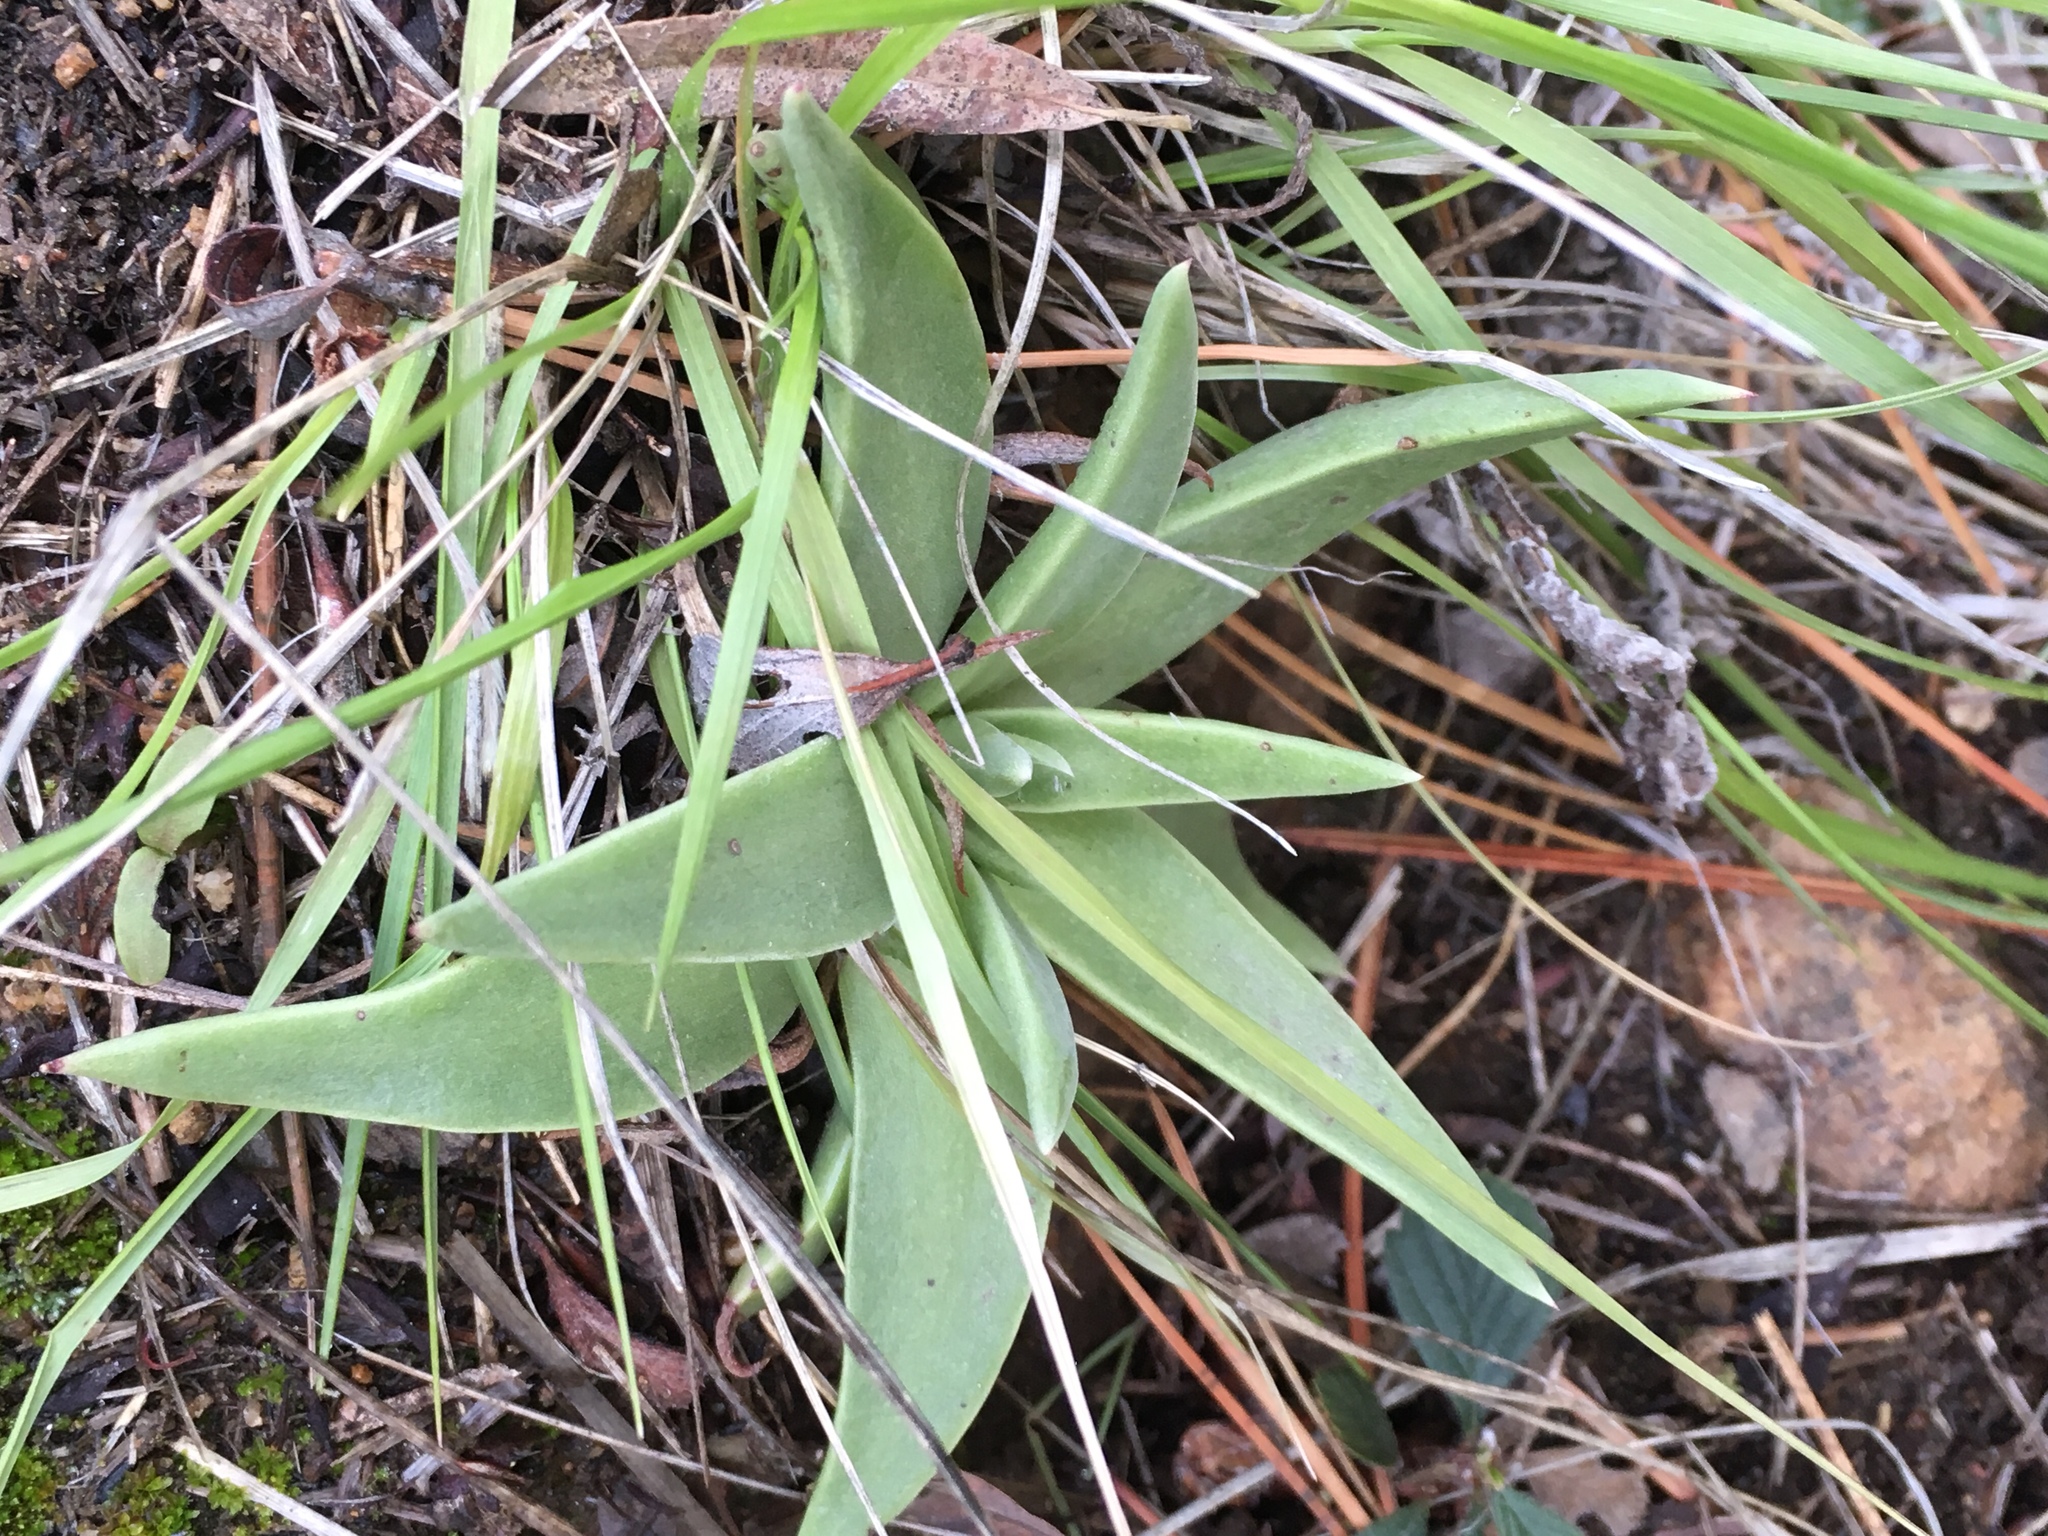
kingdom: Plantae
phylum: Tracheophyta
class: Magnoliopsida
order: Saxifragales
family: Crassulaceae
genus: Dudleya
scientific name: Dudleya saxosa
